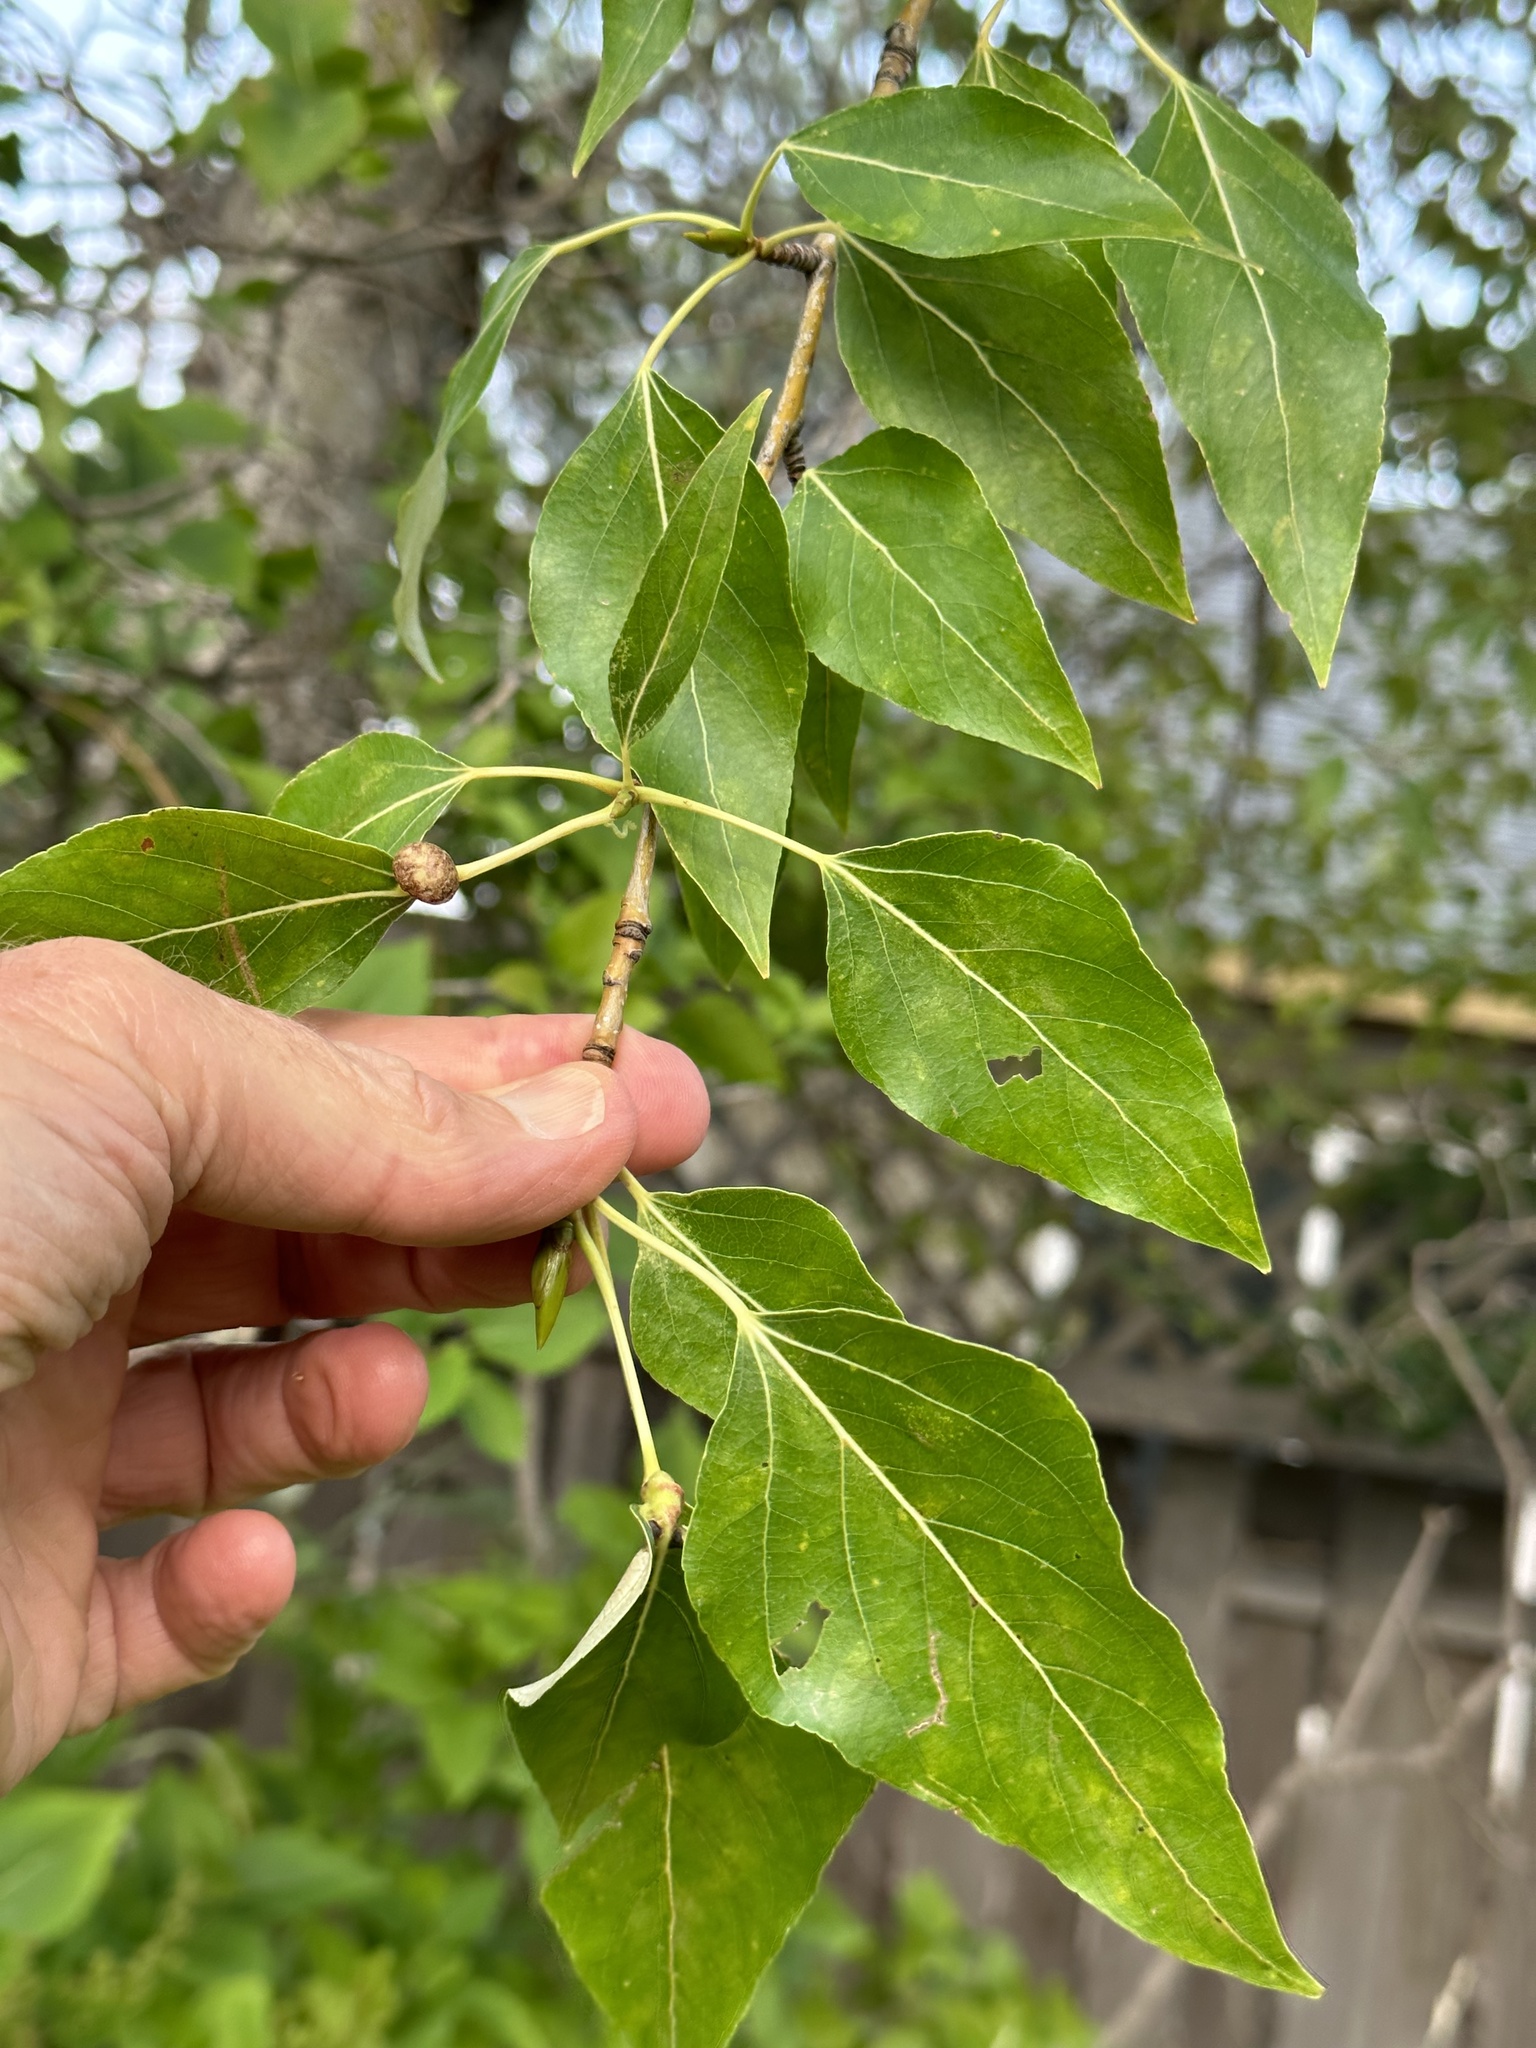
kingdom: Plantae
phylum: Tracheophyta
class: Magnoliopsida
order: Malpighiales
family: Salicaceae
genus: Populus
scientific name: Populus trichocarpa
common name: Black cottonwood
